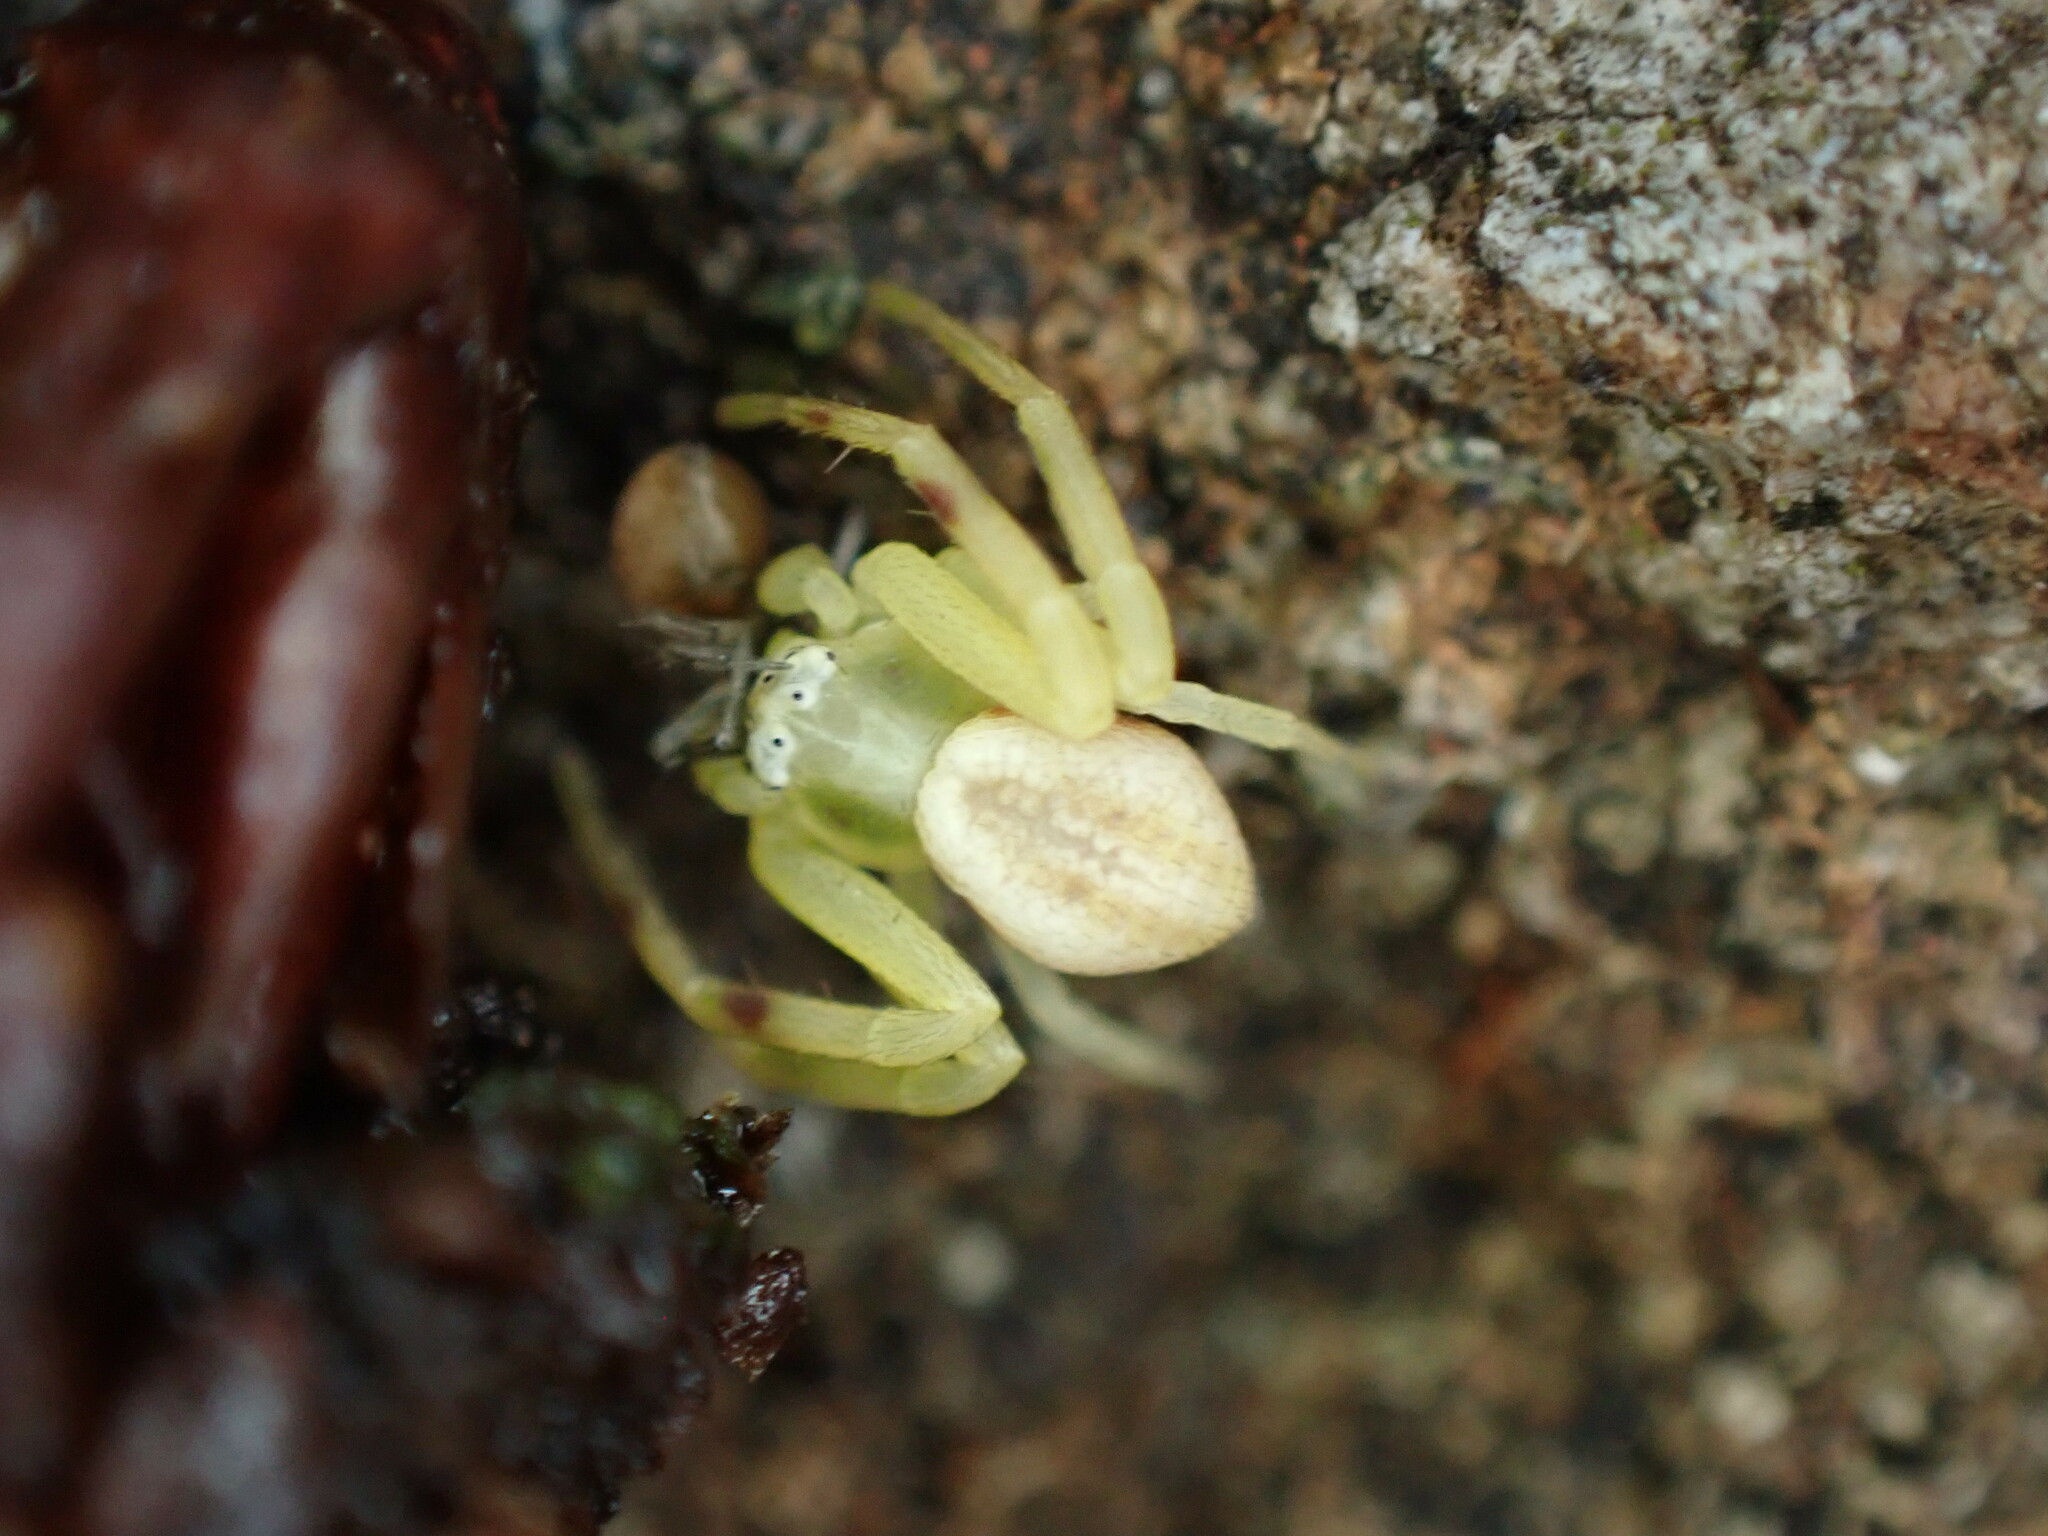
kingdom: Animalia
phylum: Arthropoda
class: Arachnida
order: Araneae
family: Thomisidae
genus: Misumena
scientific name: Misumena vatia
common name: Goldenrod crab spider
